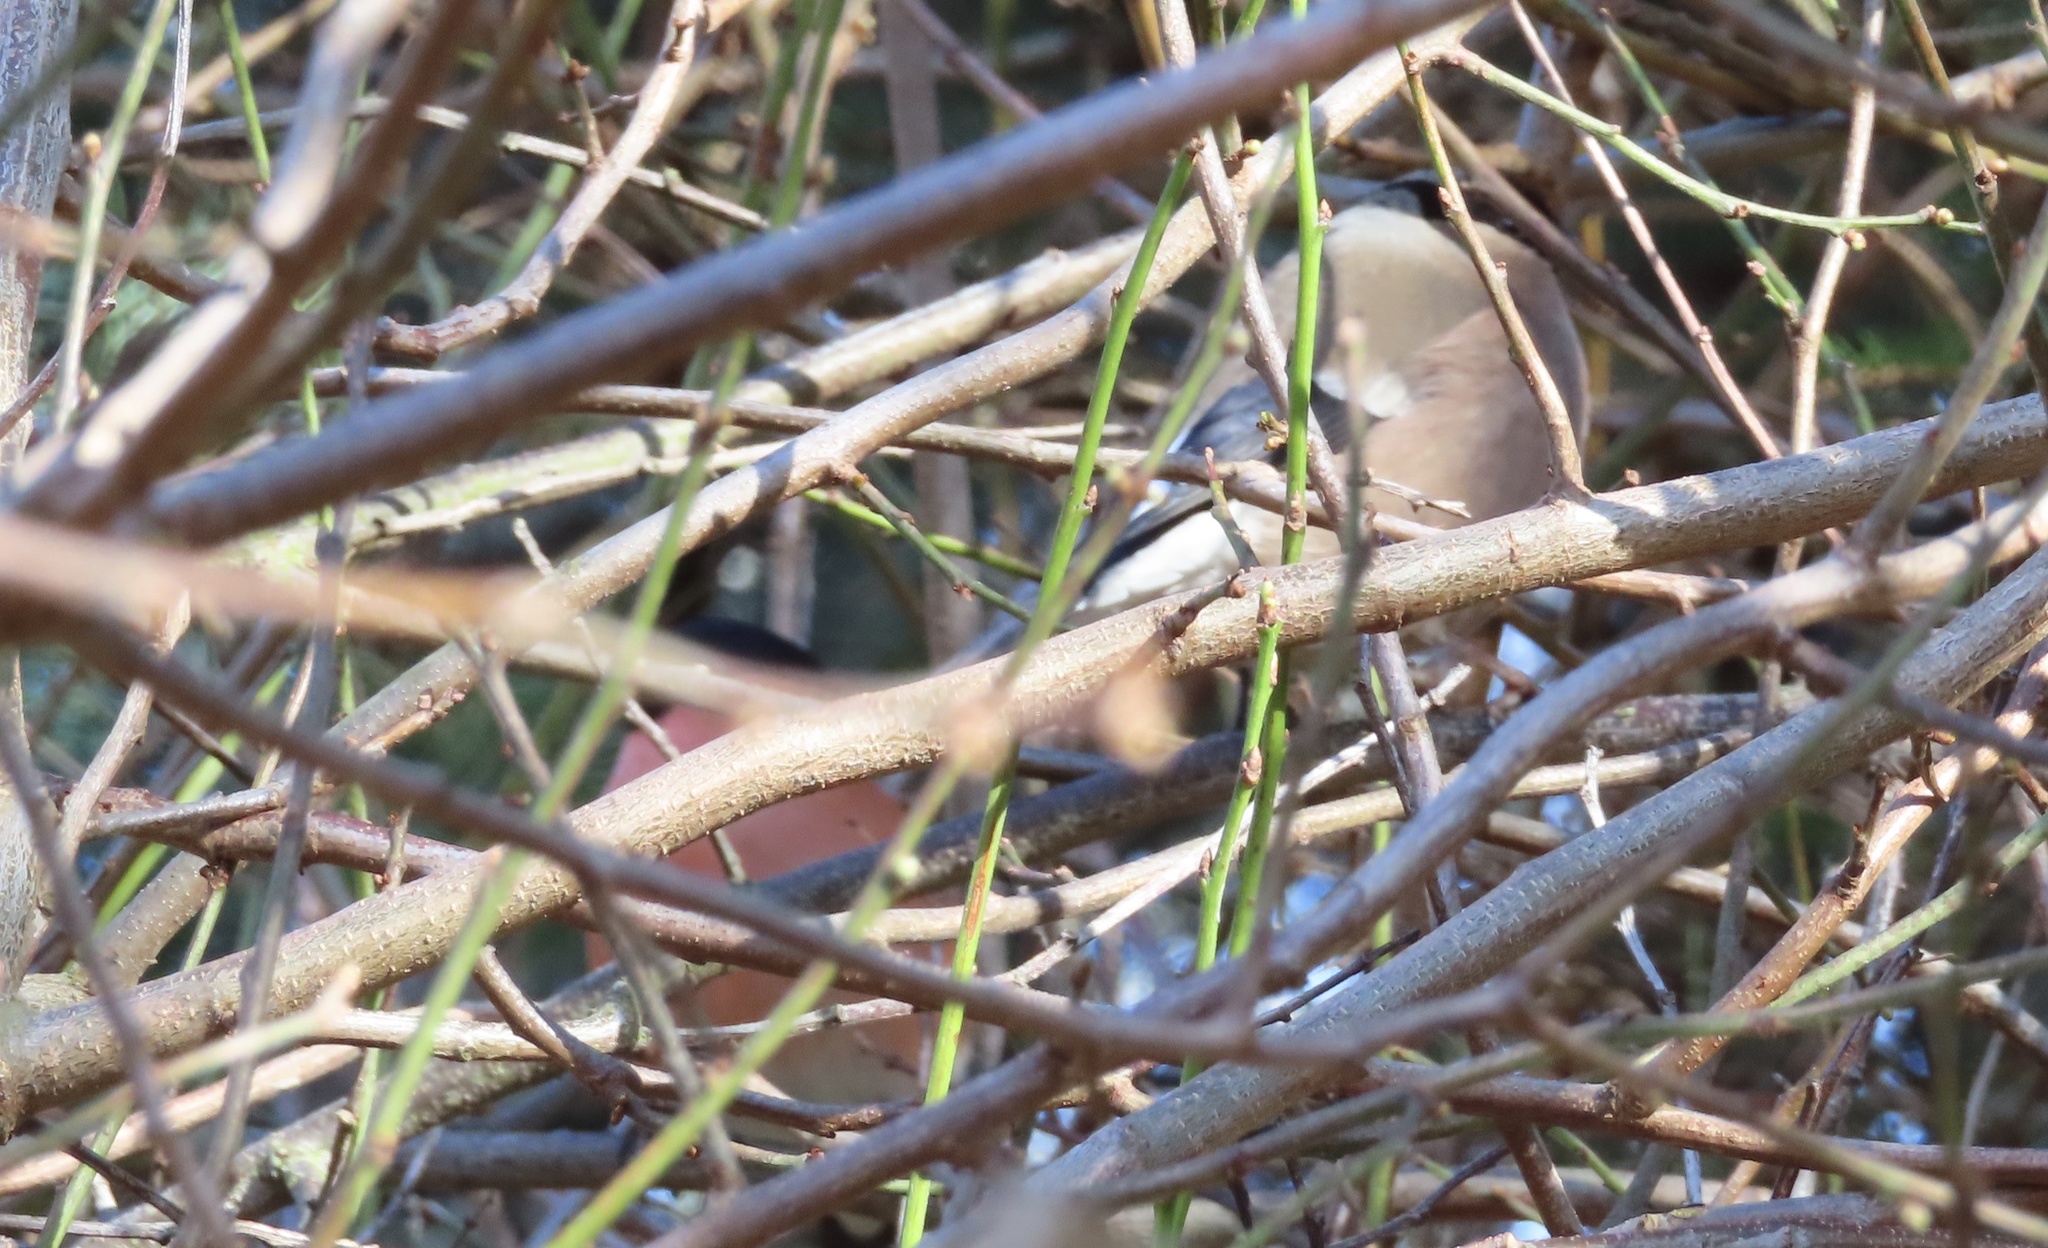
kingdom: Animalia
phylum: Chordata
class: Aves
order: Passeriformes
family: Fringillidae
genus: Pyrrhula
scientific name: Pyrrhula pyrrhula
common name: Eurasian bullfinch
